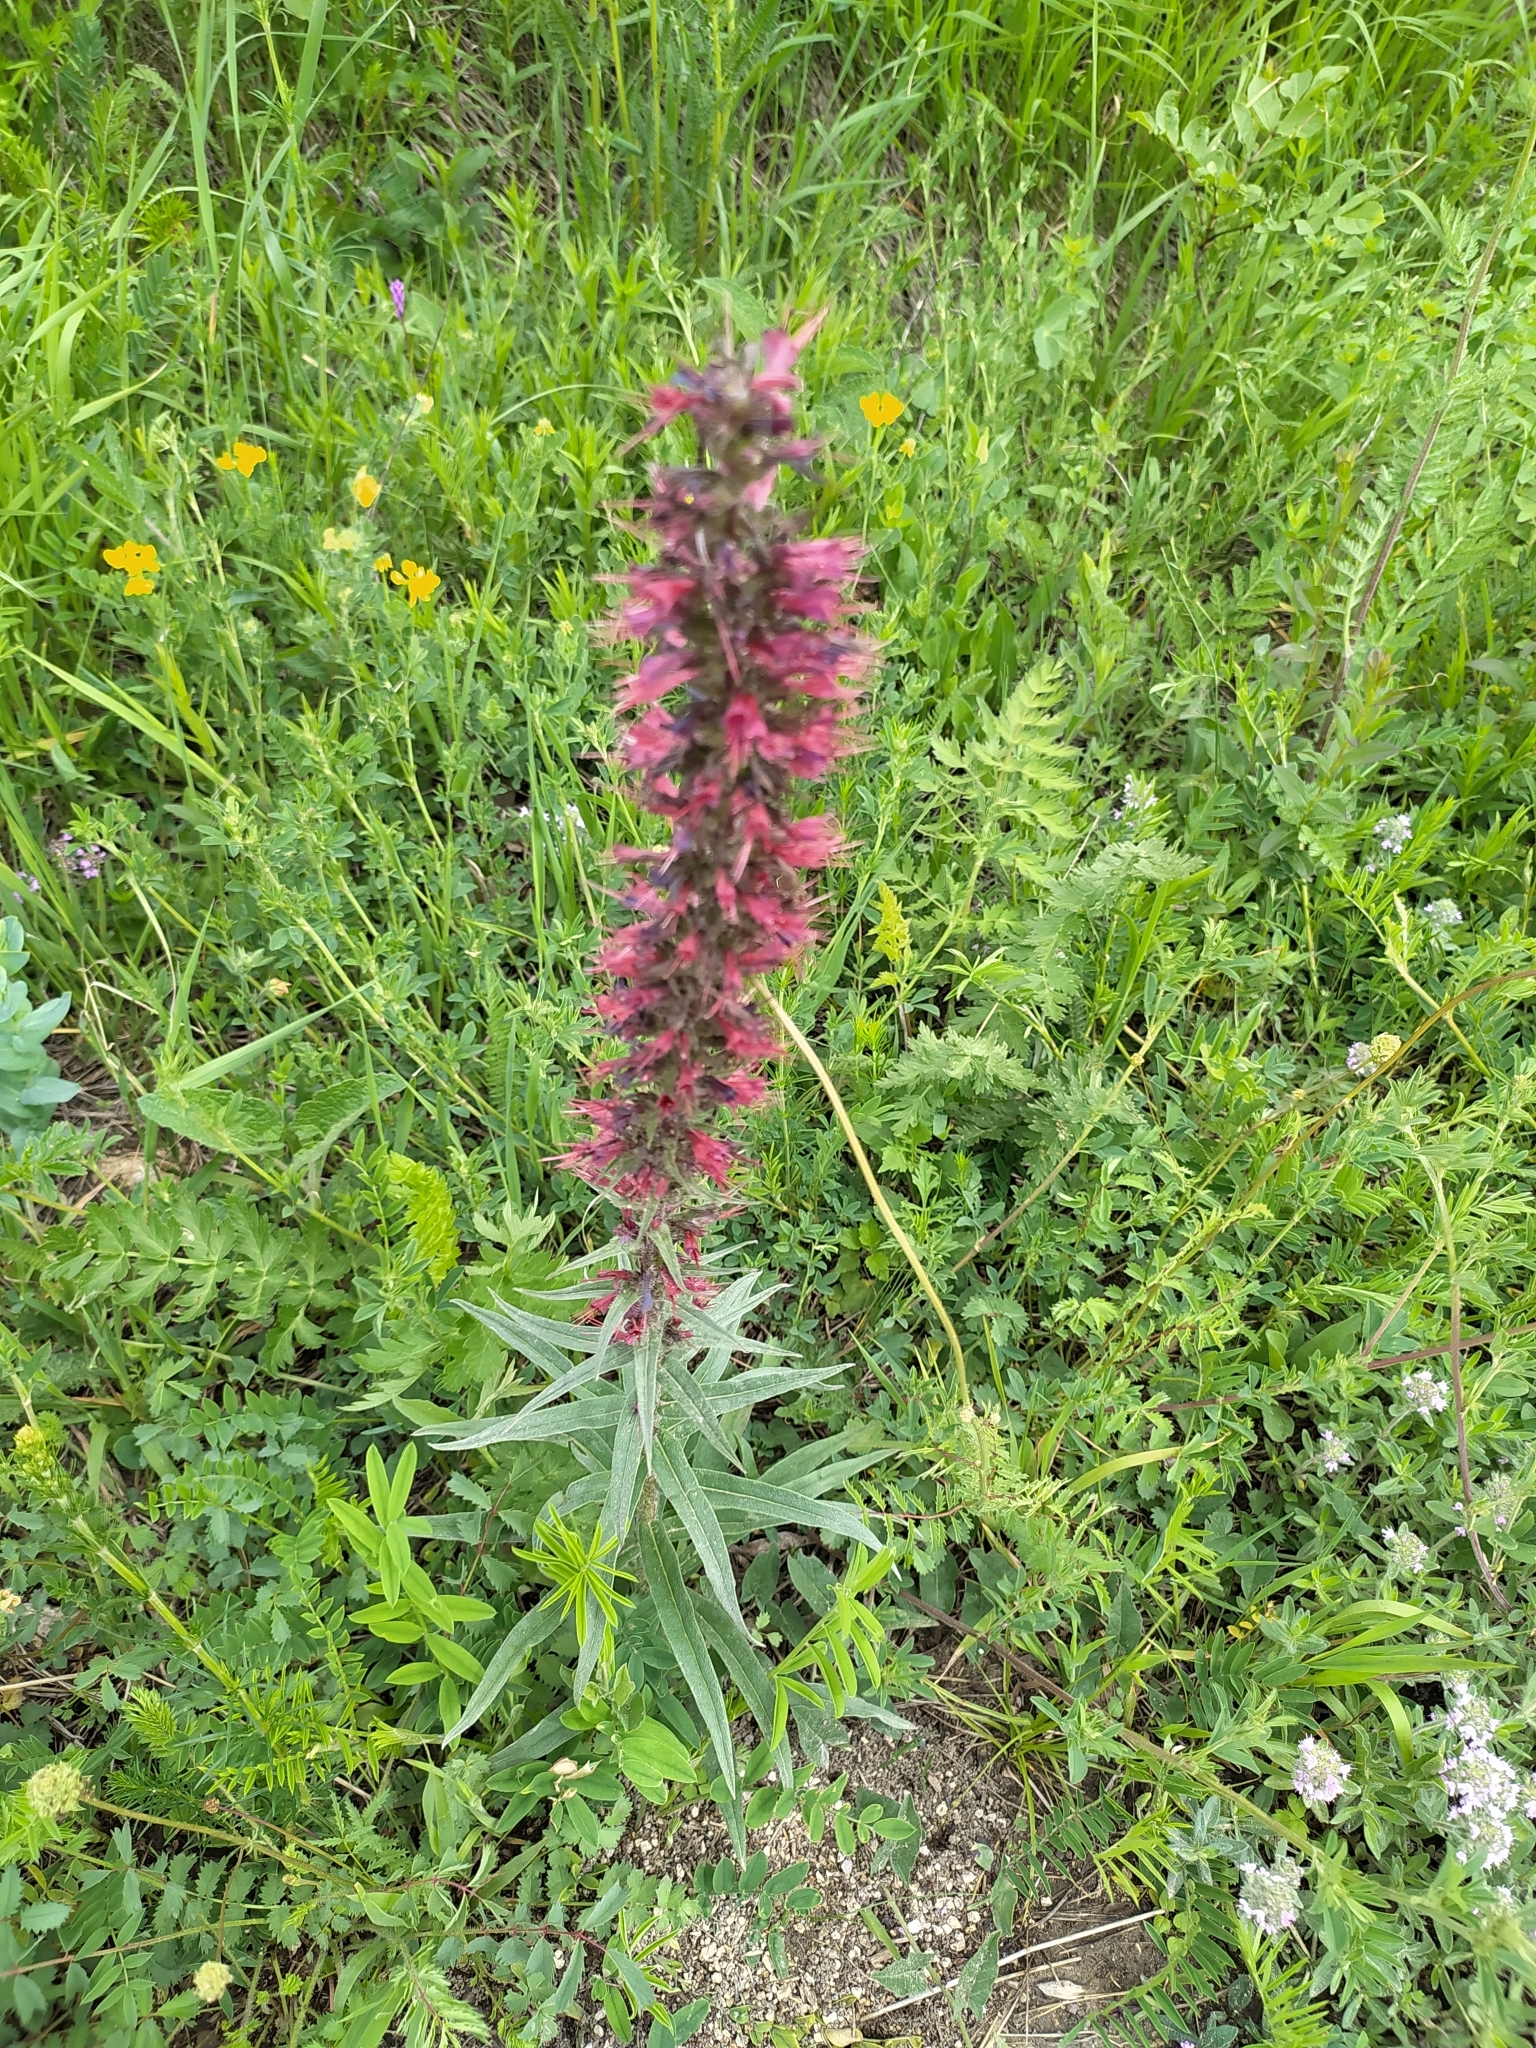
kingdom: Plantae
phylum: Tracheophyta
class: Magnoliopsida
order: Boraginales
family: Boraginaceae
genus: Pontechium
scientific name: Pontechium maculatum
